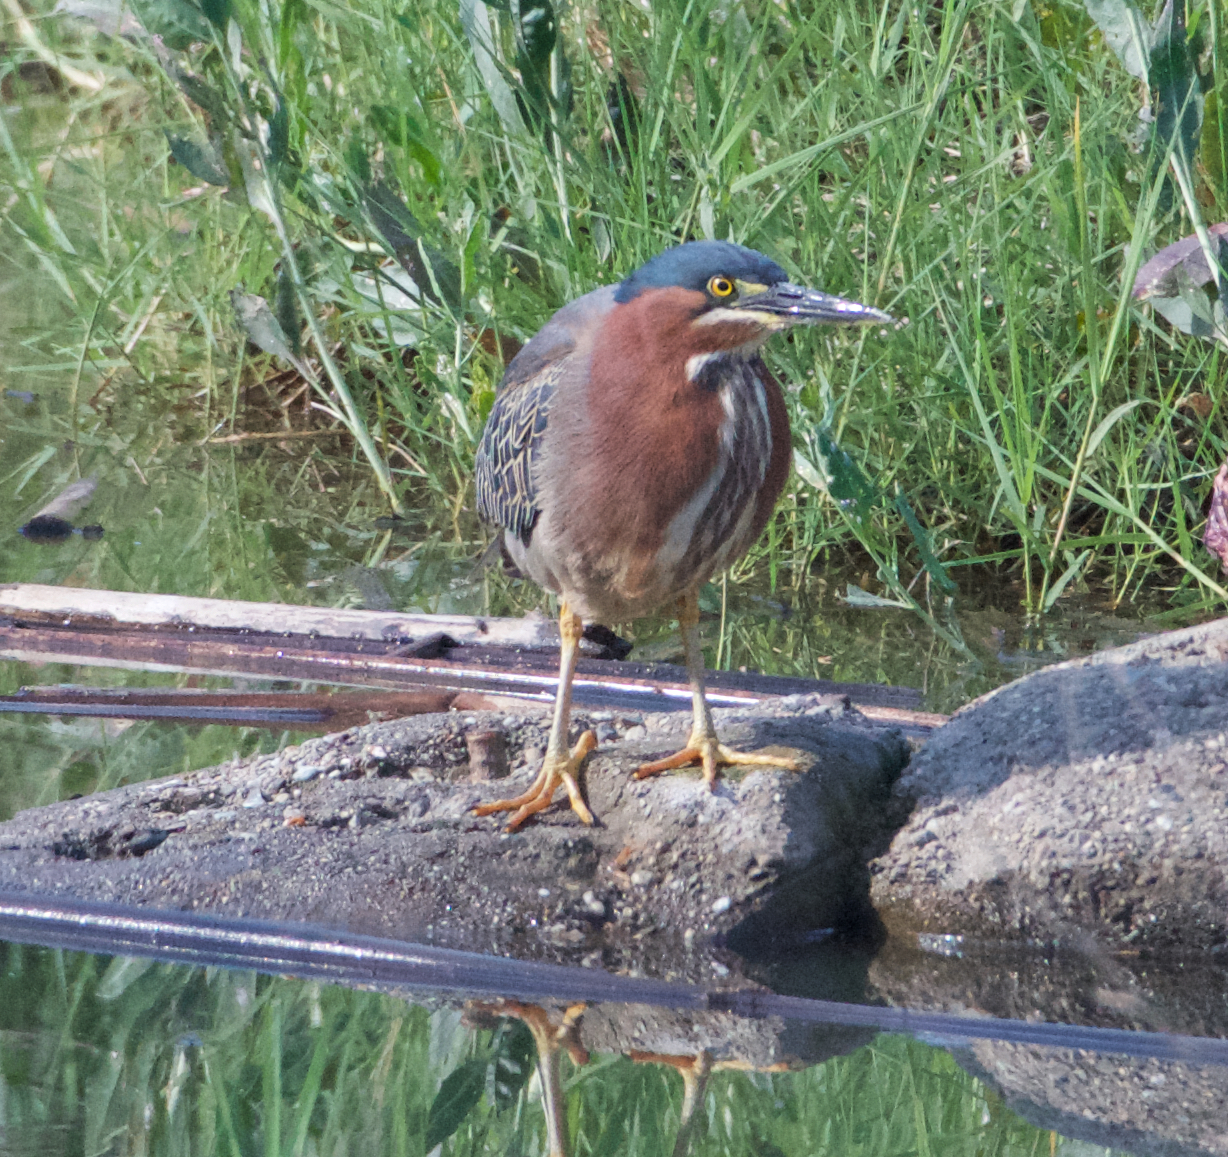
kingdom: Animalia
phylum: Chordata
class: Aves
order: Pelecaniformes
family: Ardeidae
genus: Butorides
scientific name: Butorides virescens
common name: Green heron
